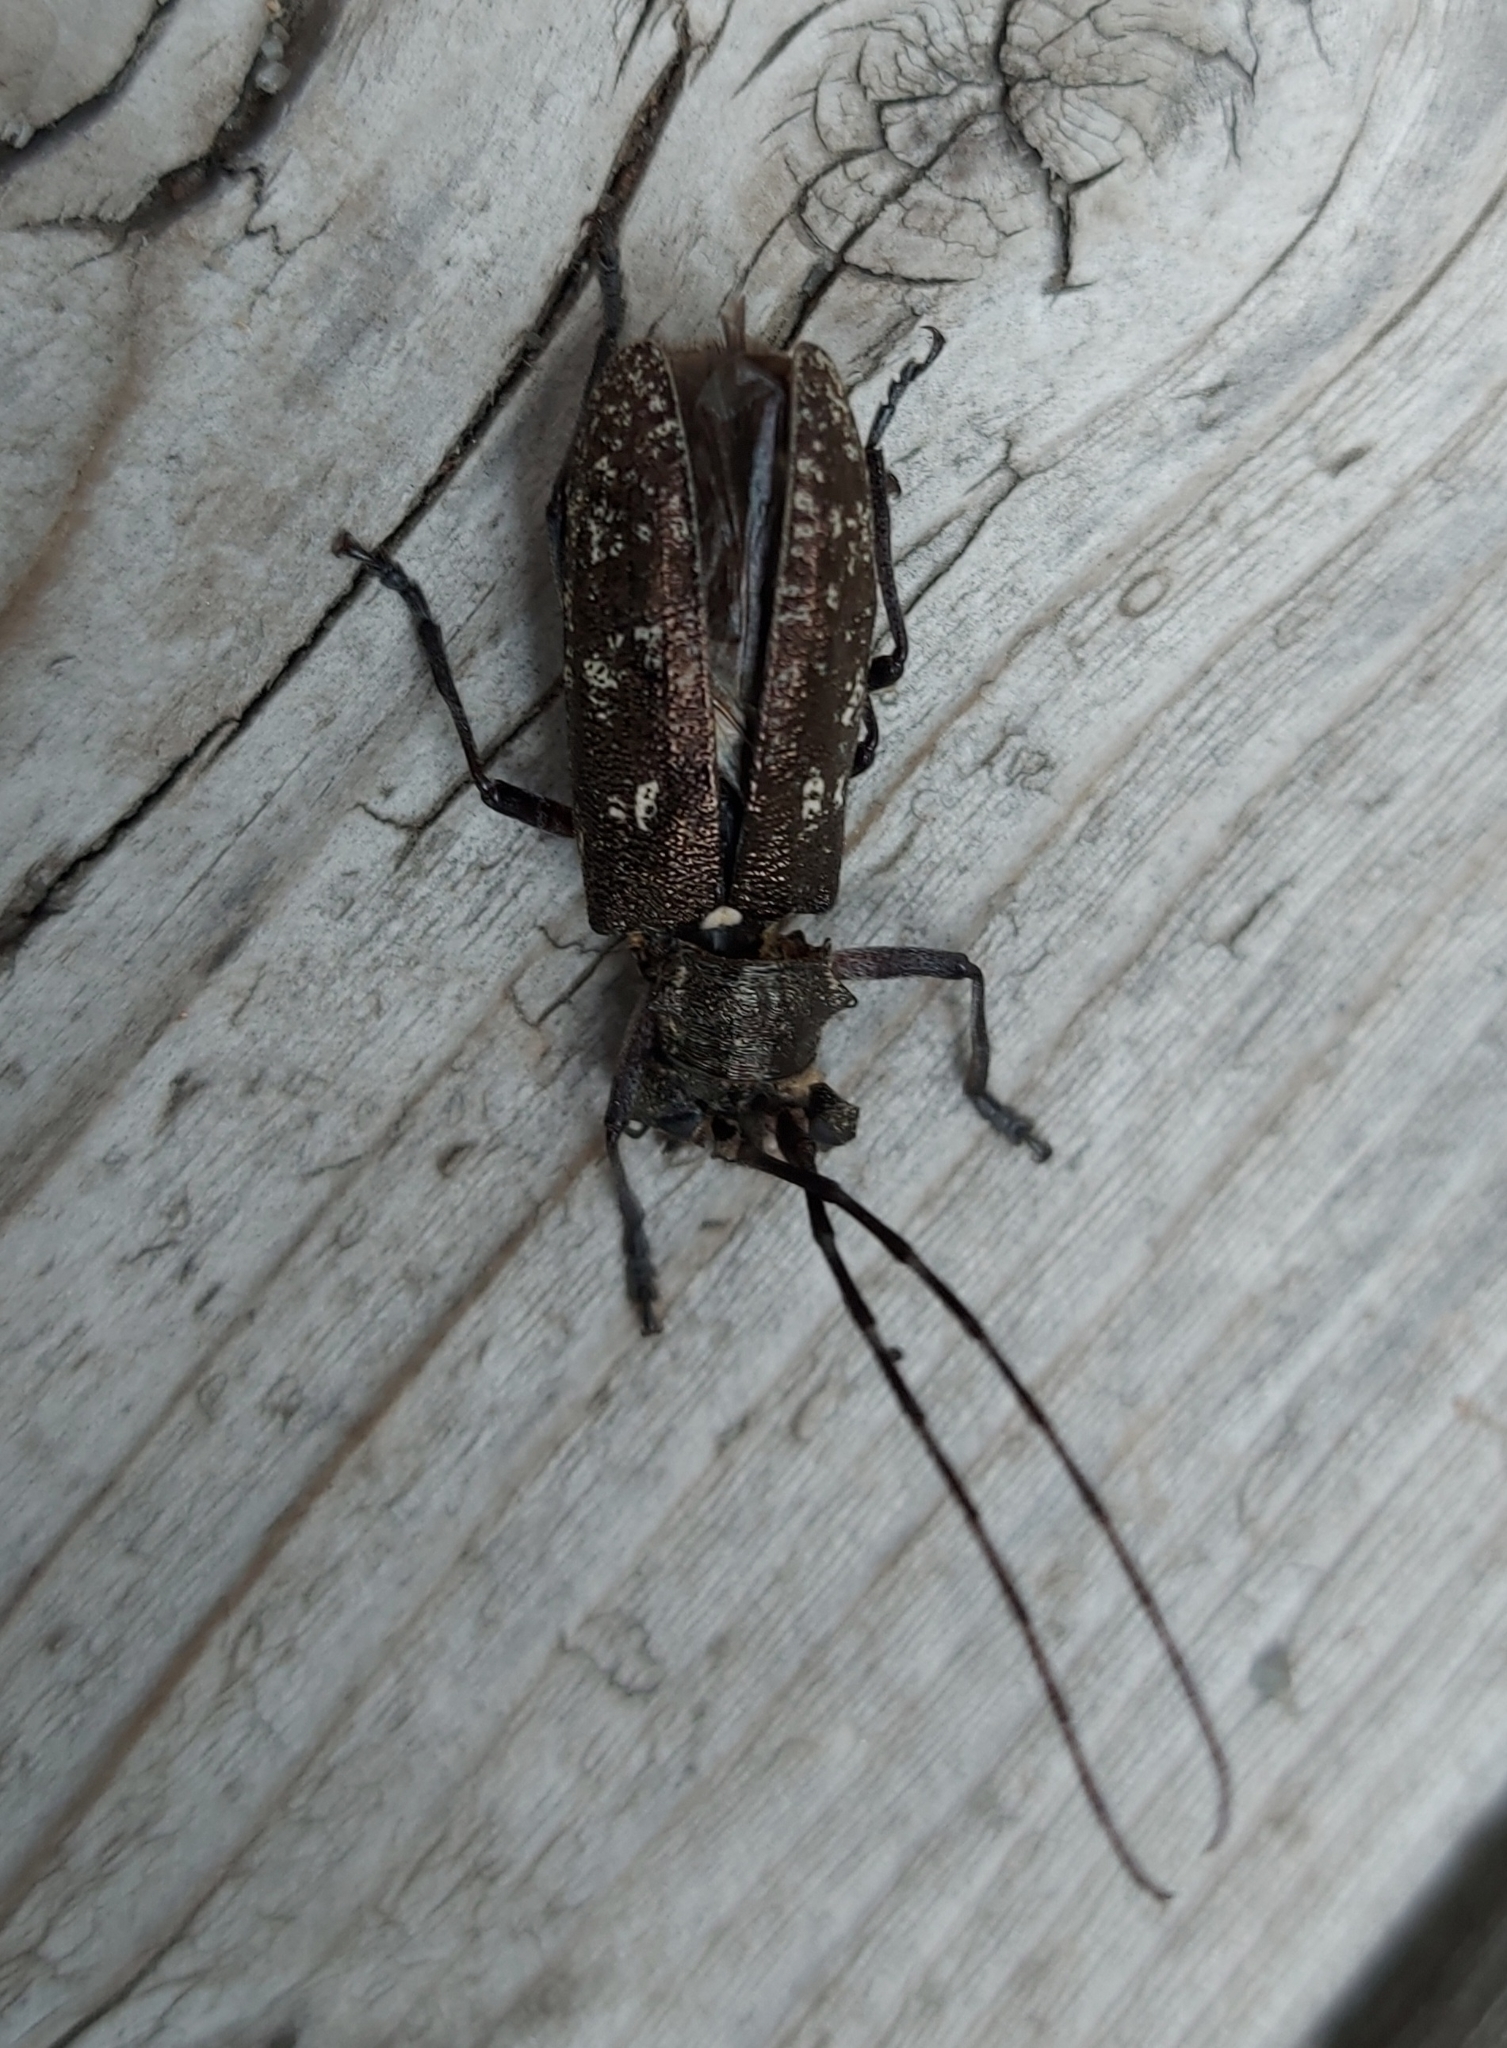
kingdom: Animalia
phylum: Arthropoda
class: Insecta
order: Coleoptera
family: Cerambycidae
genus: Monochamus
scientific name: Monochamus scutellatus
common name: White-spotted sawyer beetle
